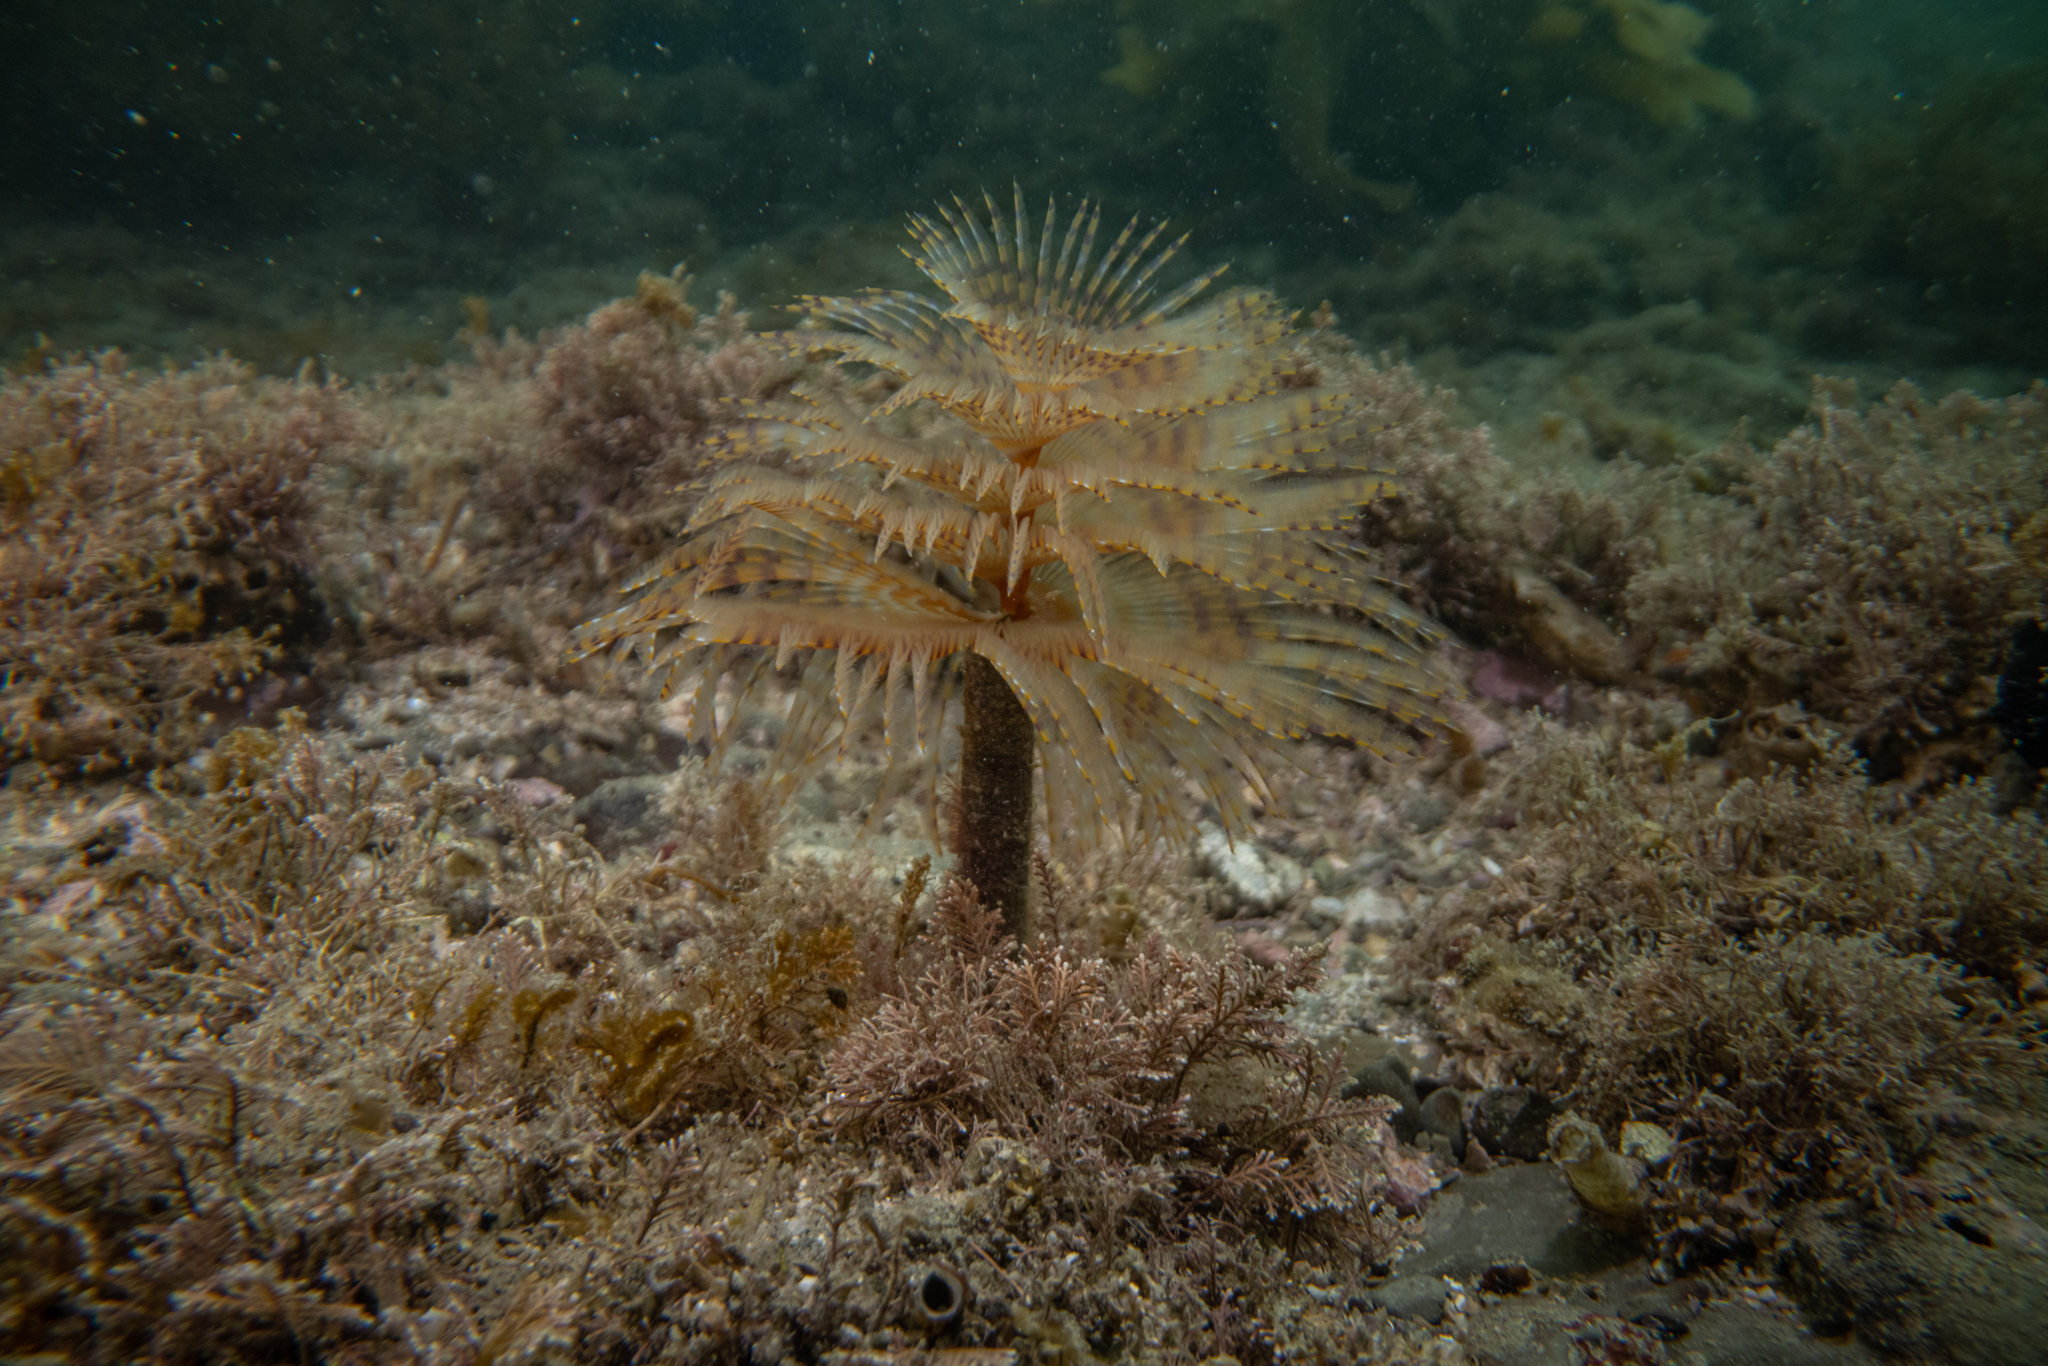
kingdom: Animalia
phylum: Annelida
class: Polychaeta
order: Sabellida
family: Sabellidae
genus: Sabella
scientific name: Sabella spallanzanii
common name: Feather duster worm
